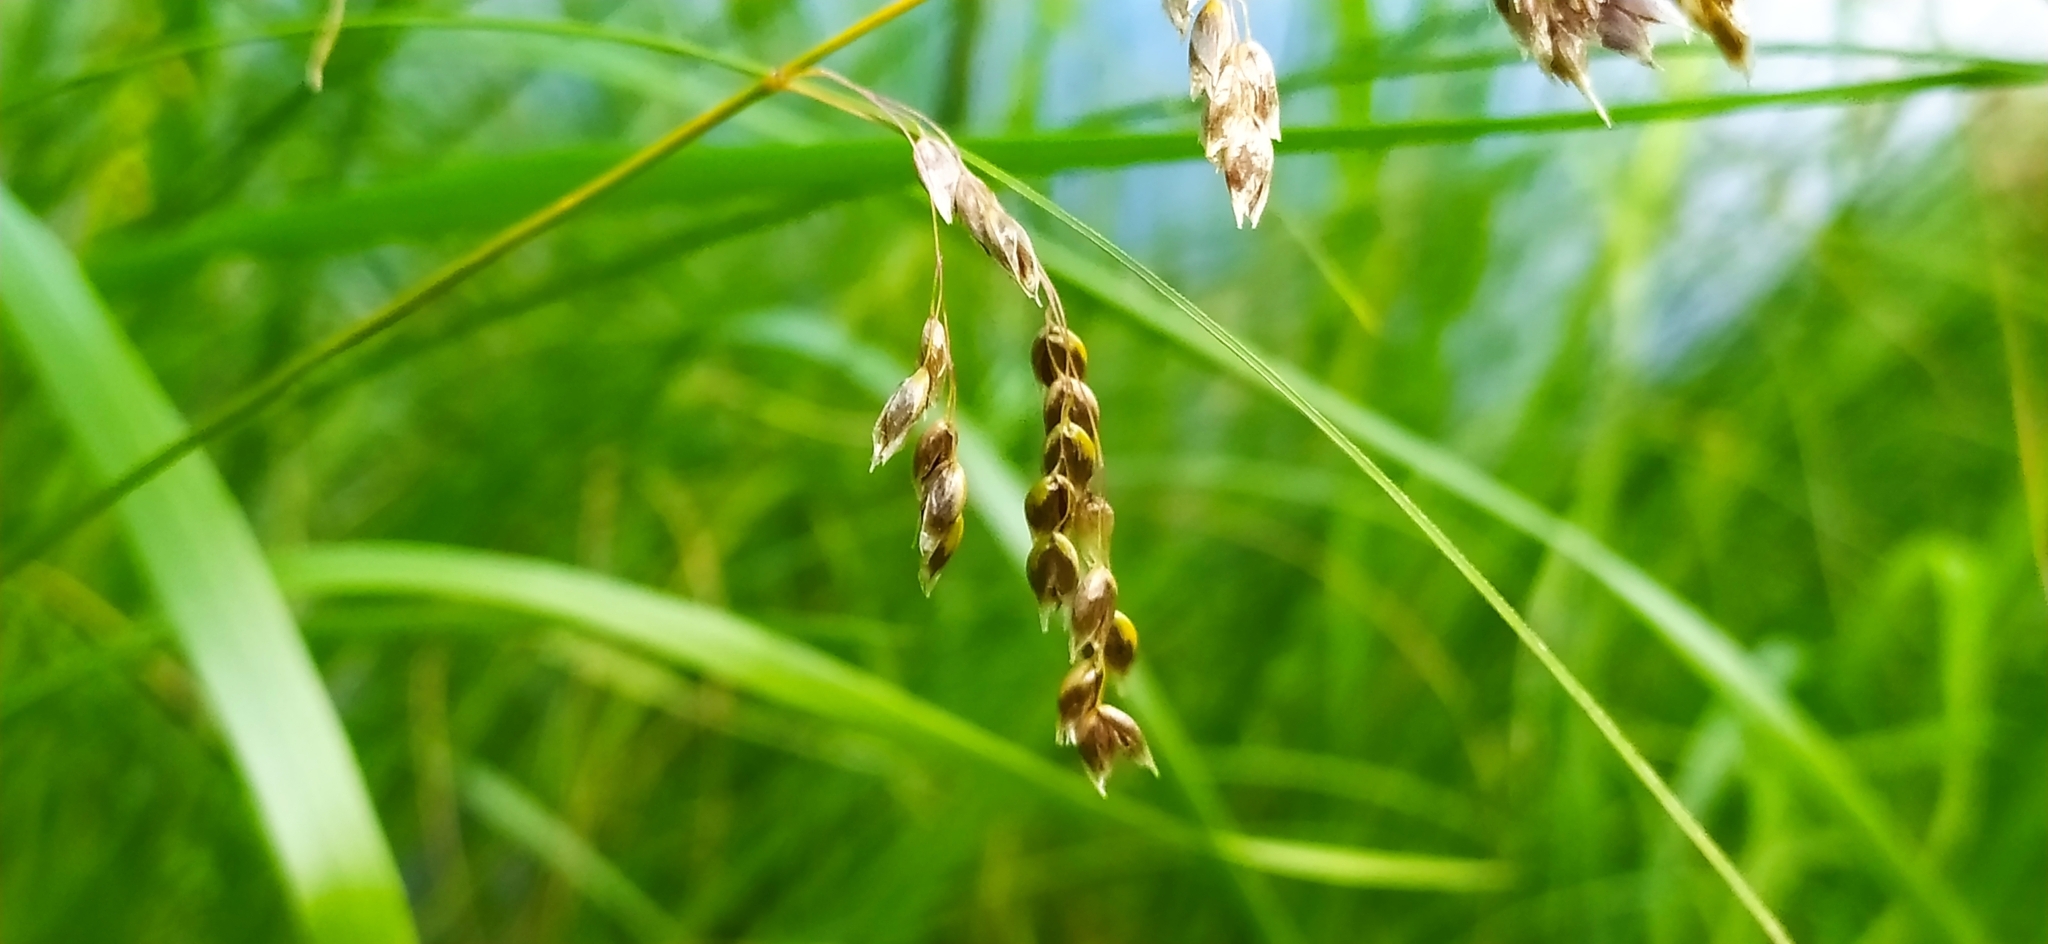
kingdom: Plantae
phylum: Tracheophyta
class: Liliopsida
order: Poales
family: Poaceae
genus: Anthoxanthum
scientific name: Anthoxanthum arcticum
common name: Arctic sweetgrass
